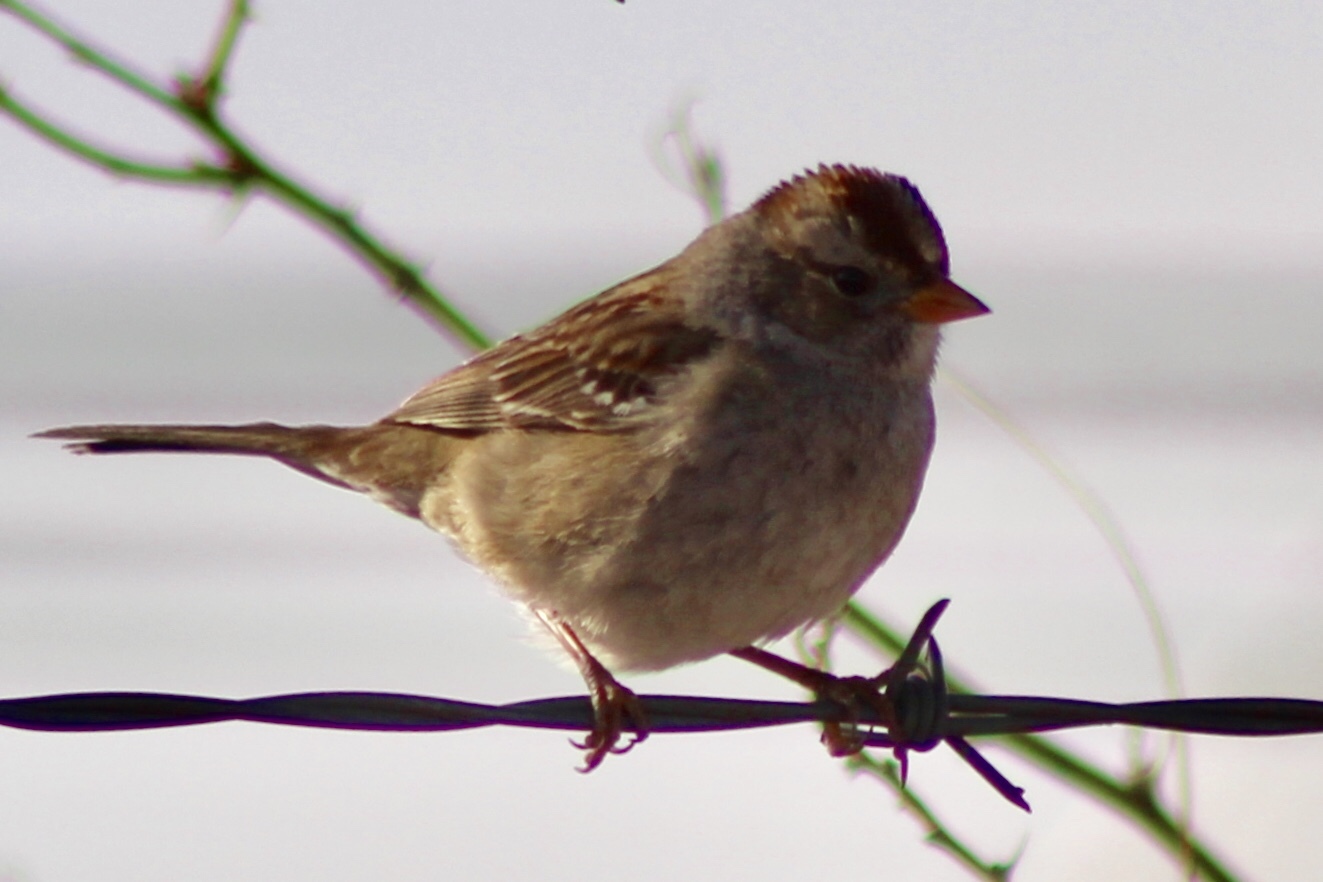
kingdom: Animalia
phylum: Chordata
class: Aves
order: Passeriformes
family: Passerellidae
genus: Zonotrichia
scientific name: Zonotrichia leucophrys
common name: White-crowned sparrow
